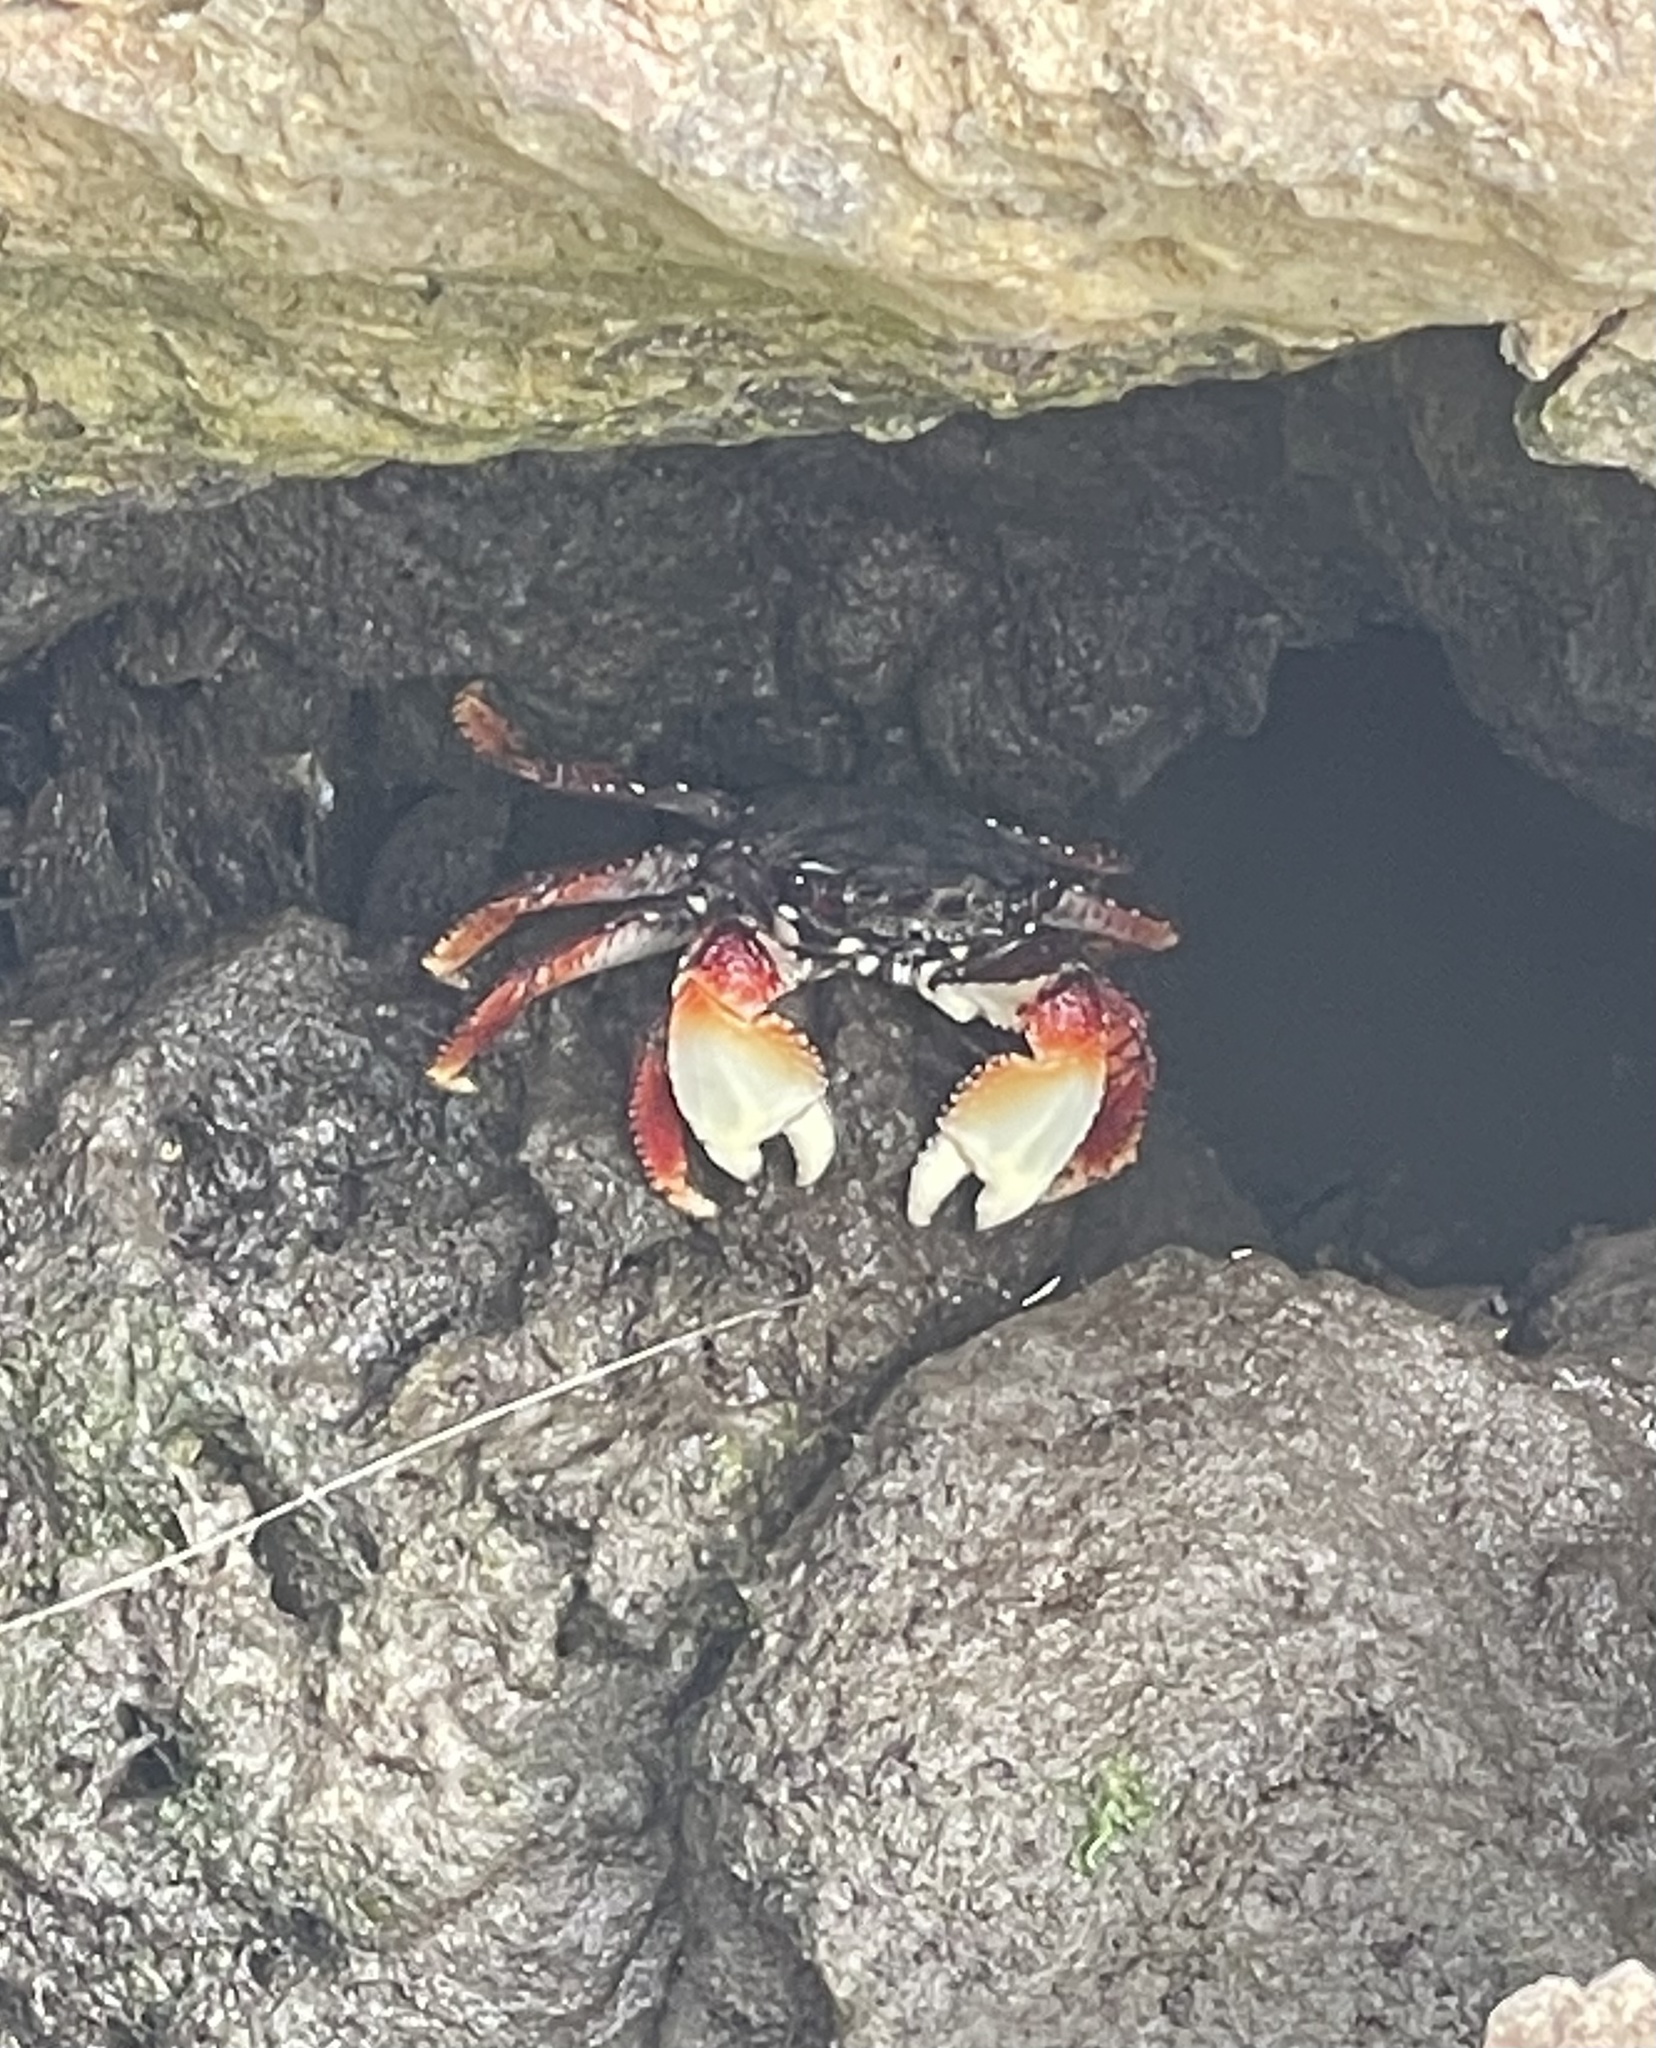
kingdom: Animalia
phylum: Arthropoda
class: Malacostraca
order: Decapoda
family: Grapsidae
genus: Goniopsis
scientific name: Goniopsis cruentata
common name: Mangrove crab
